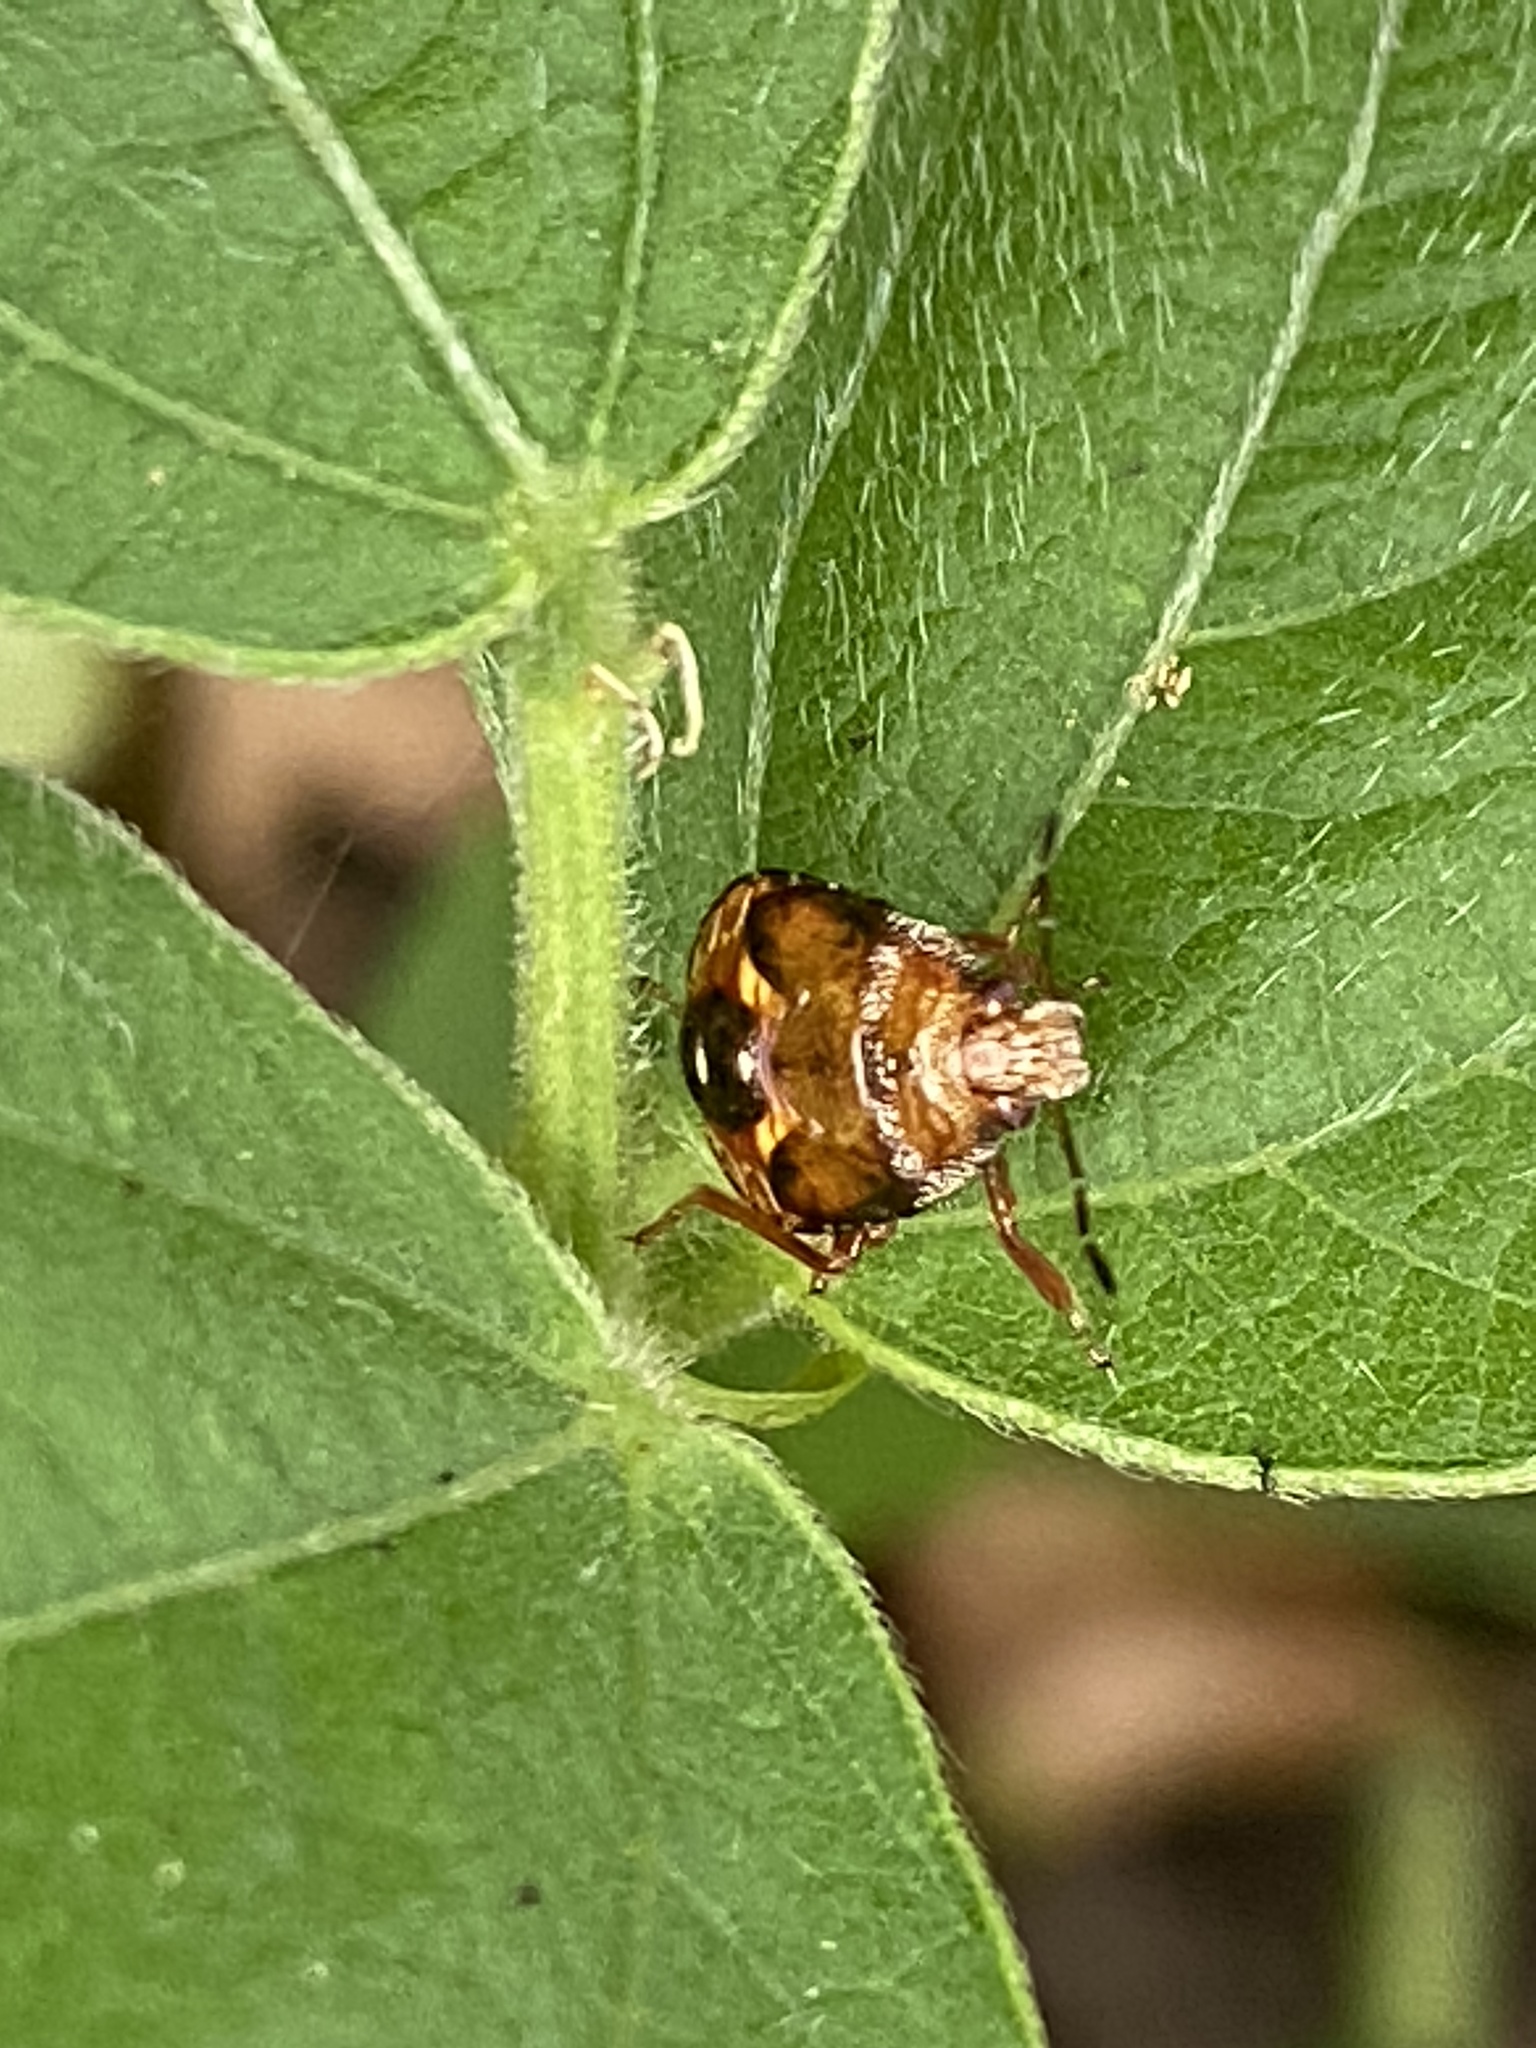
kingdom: Animalia
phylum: Arthropoda
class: Insecta
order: Hemiptera
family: Pentatomidae
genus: Podisus
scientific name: Podisus
